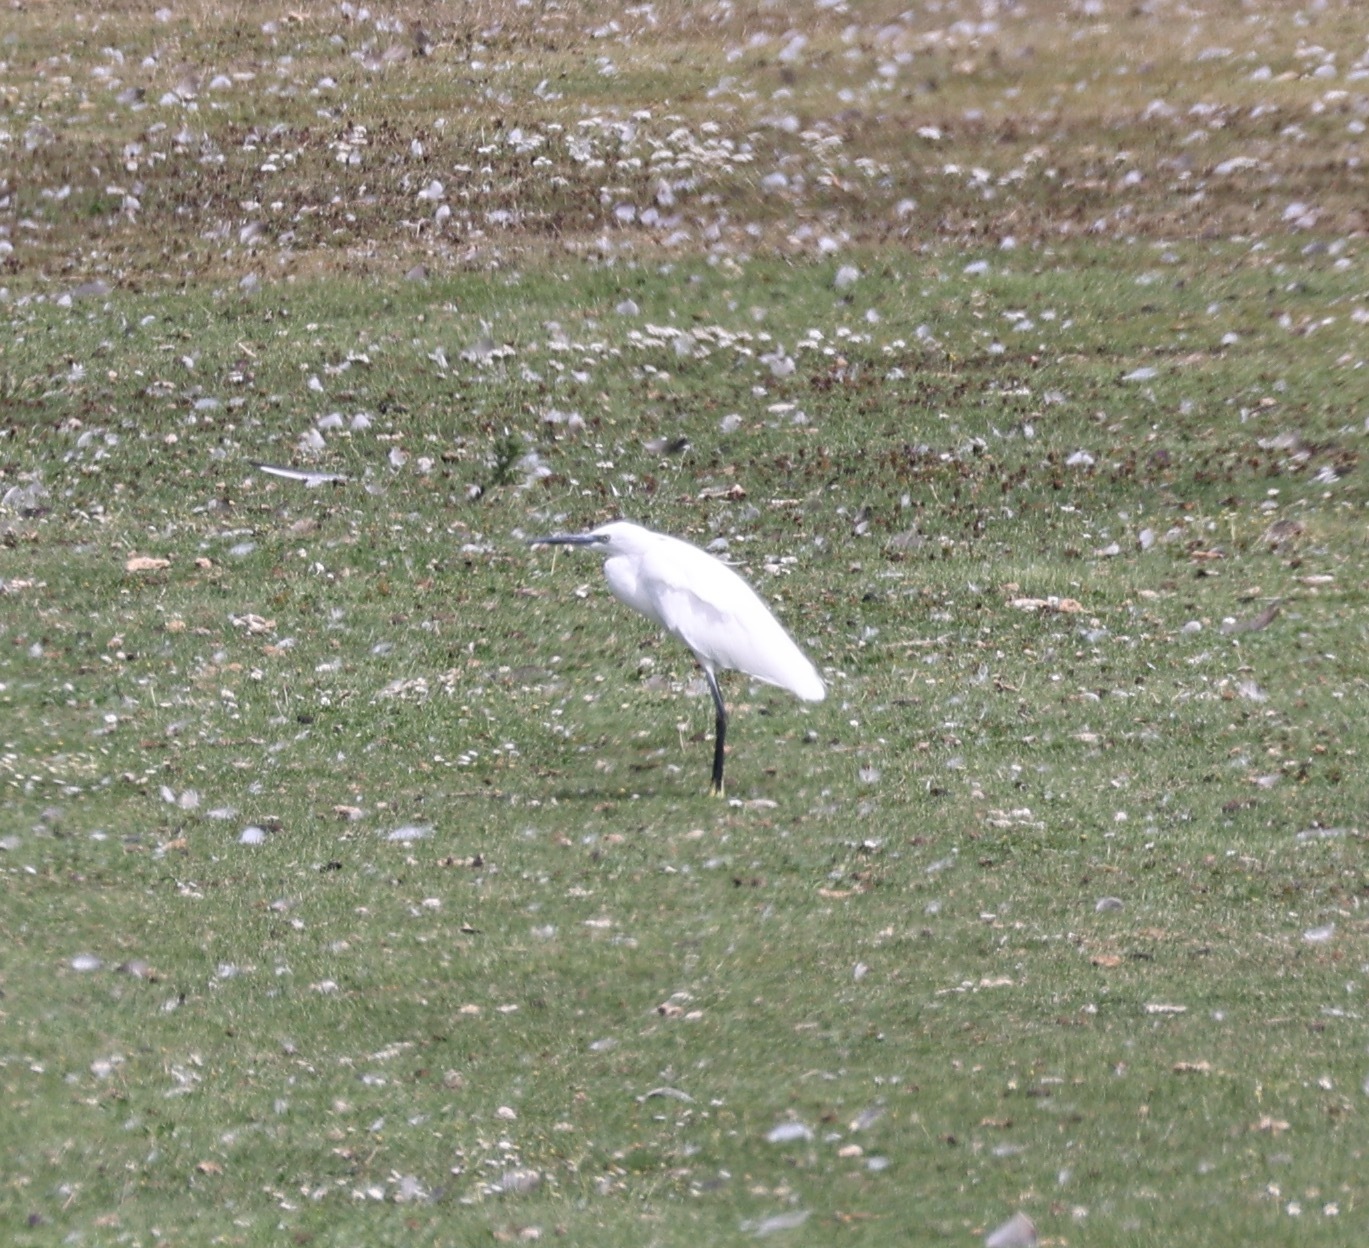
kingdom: Animalia
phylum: Chordata
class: Aves
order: Pelecaniformes
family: Ardeidae
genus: Egretta
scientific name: Egretta garzetta
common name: Little egret
